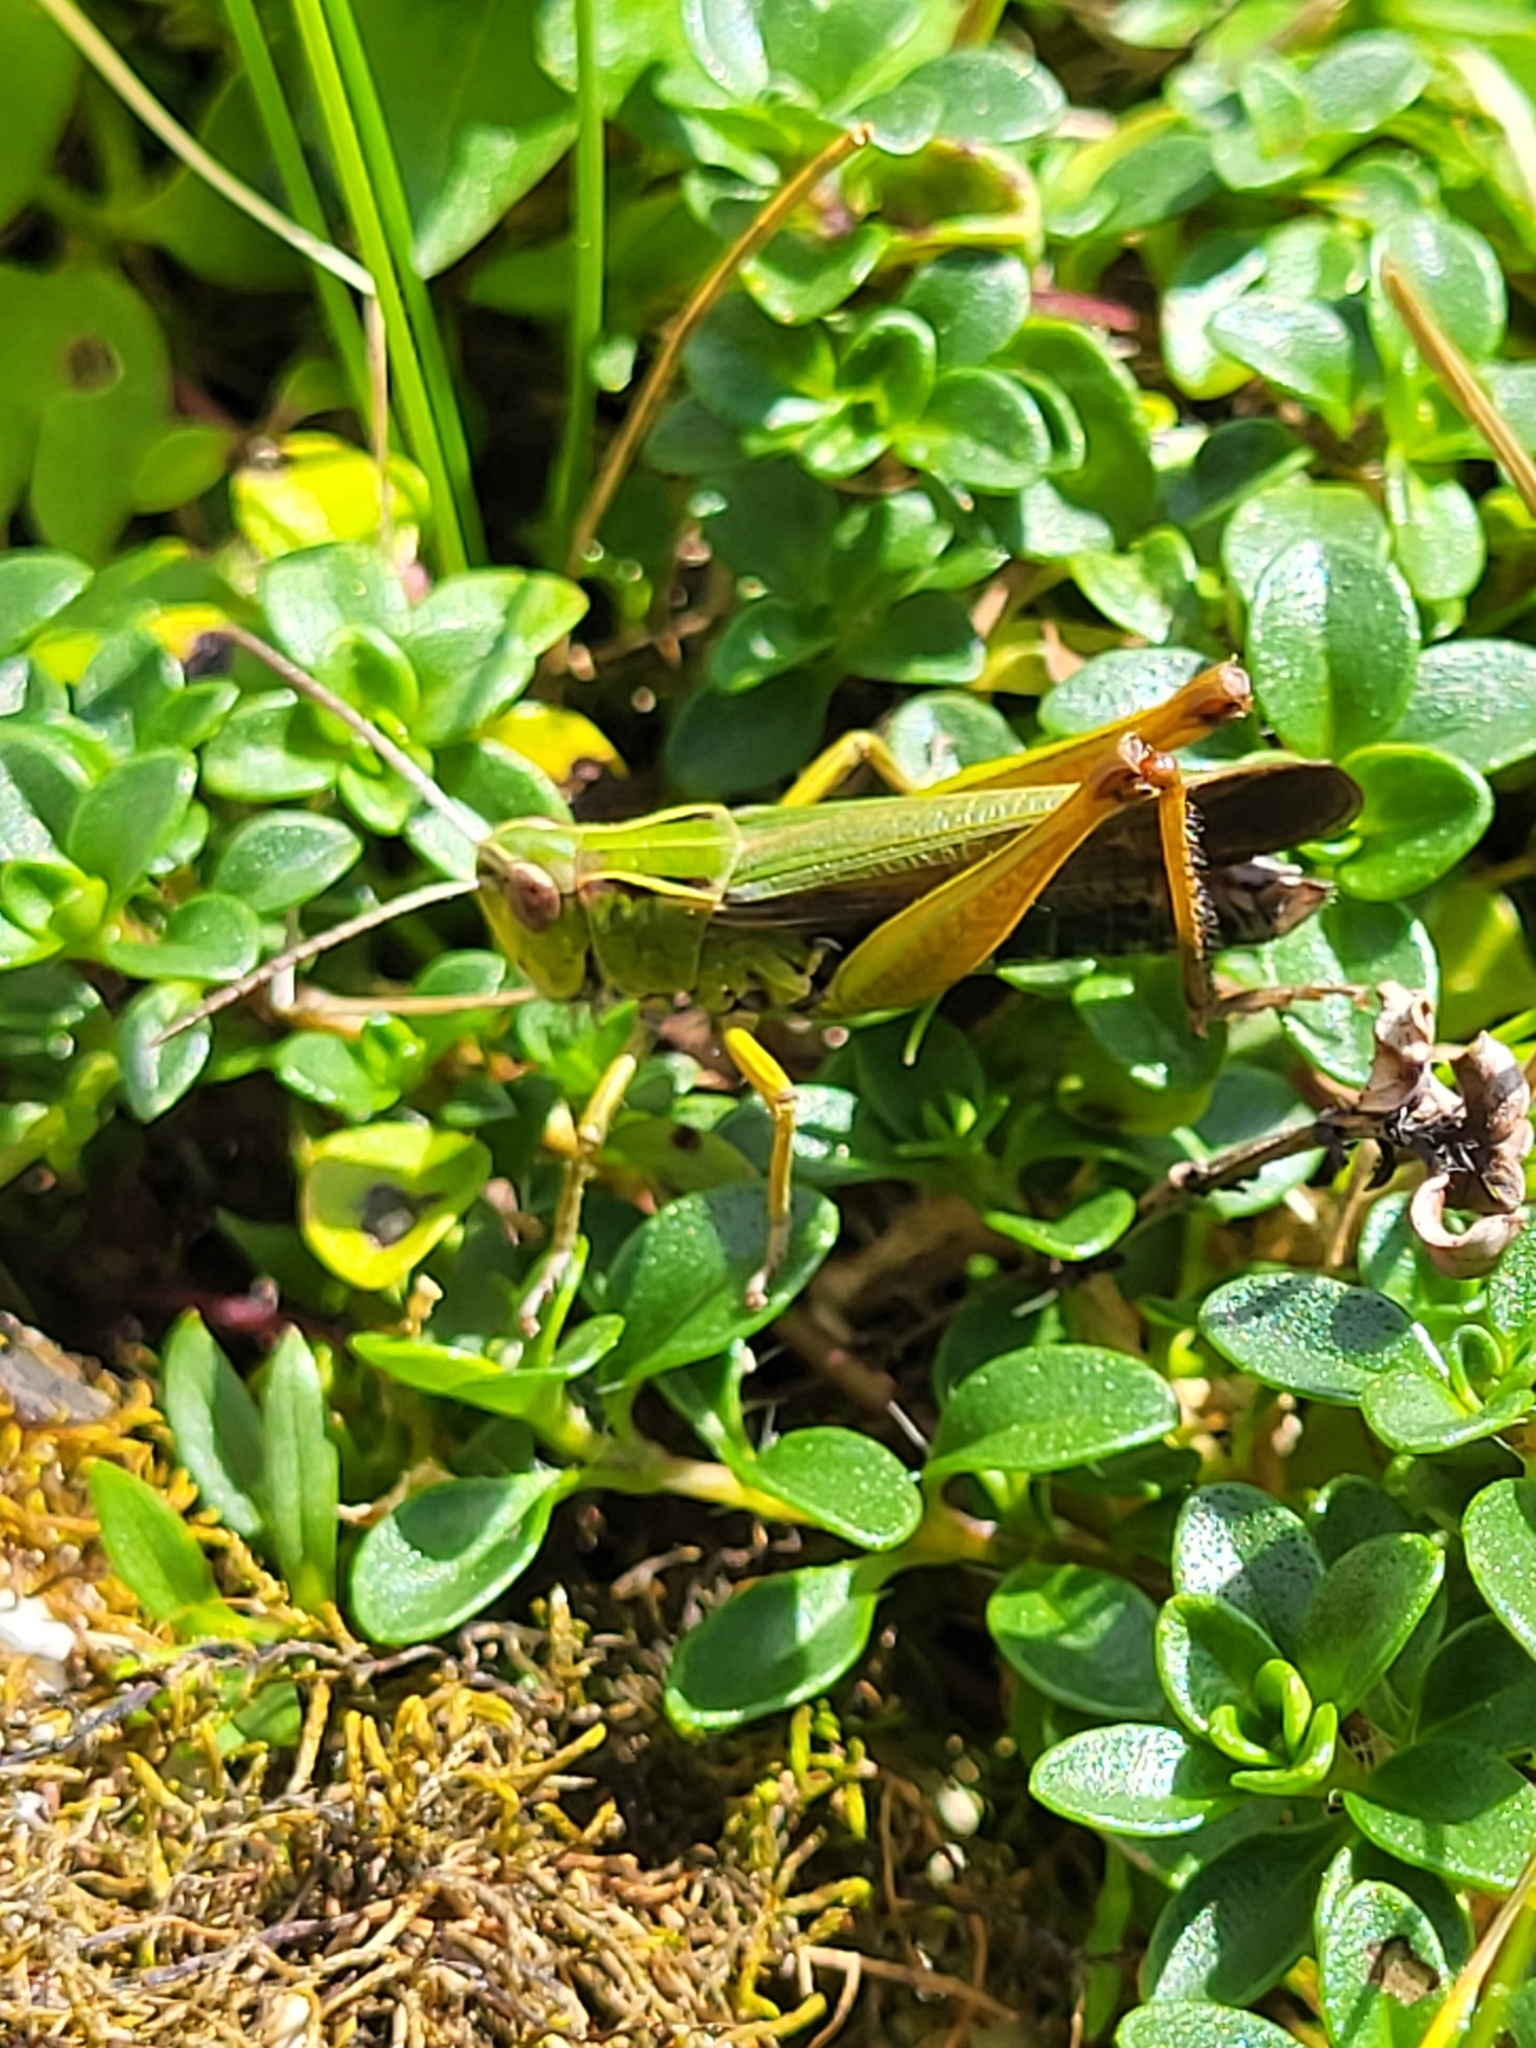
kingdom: Animalia
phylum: Arthropoda
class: Insecta
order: Orthoptera
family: Acrididae
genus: Omocestus
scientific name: Omocestus viridulus
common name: Common green grasshopper
